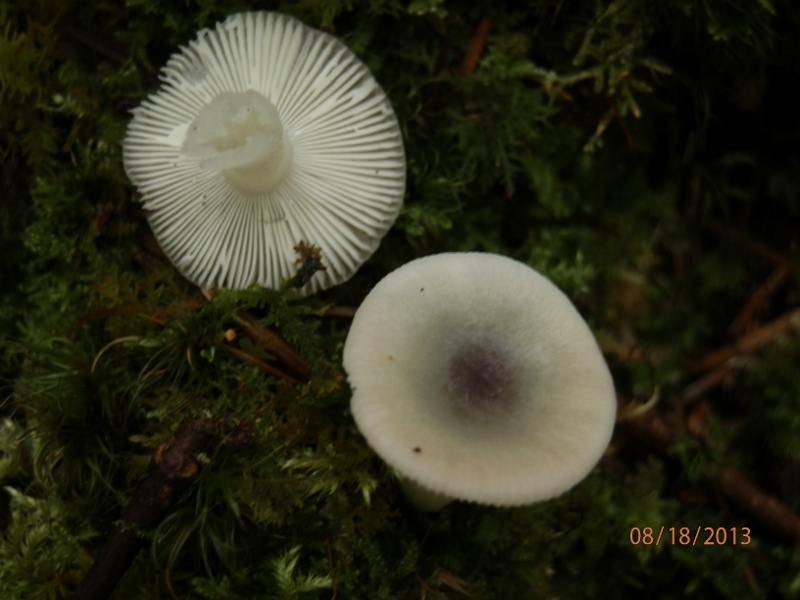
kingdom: Fungi
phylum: Basidiomycota
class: Agaricomycetes
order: Russulales
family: Russulaceae
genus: Russula
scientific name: Russula fragilis
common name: Fragile brittlegill
